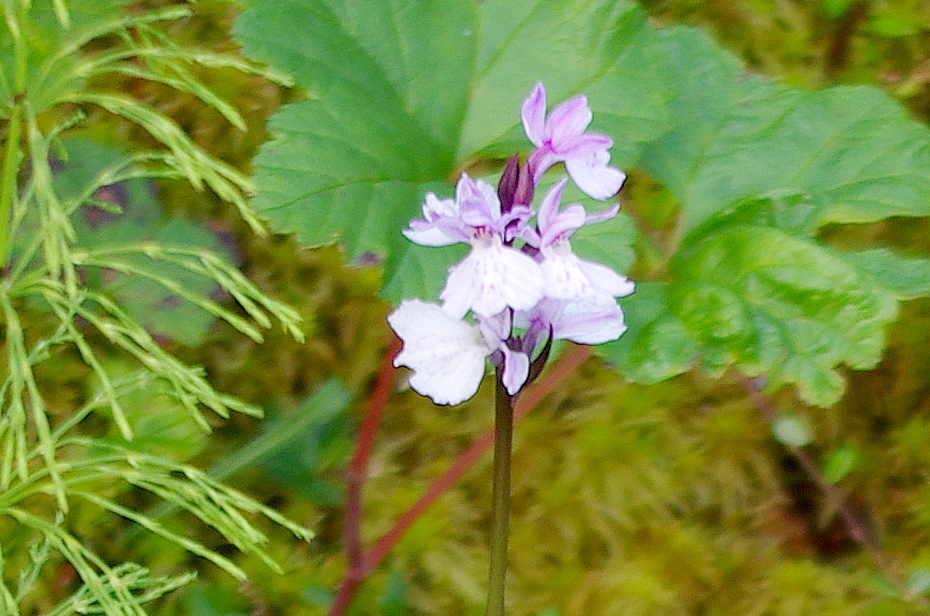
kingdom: Plantae
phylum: Tracheophyta
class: Liliopsida
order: Asparagales
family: Orchidaceae
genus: Dactylorhiza
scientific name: Dactylorhiza maculata
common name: Heath spotted-orchid
